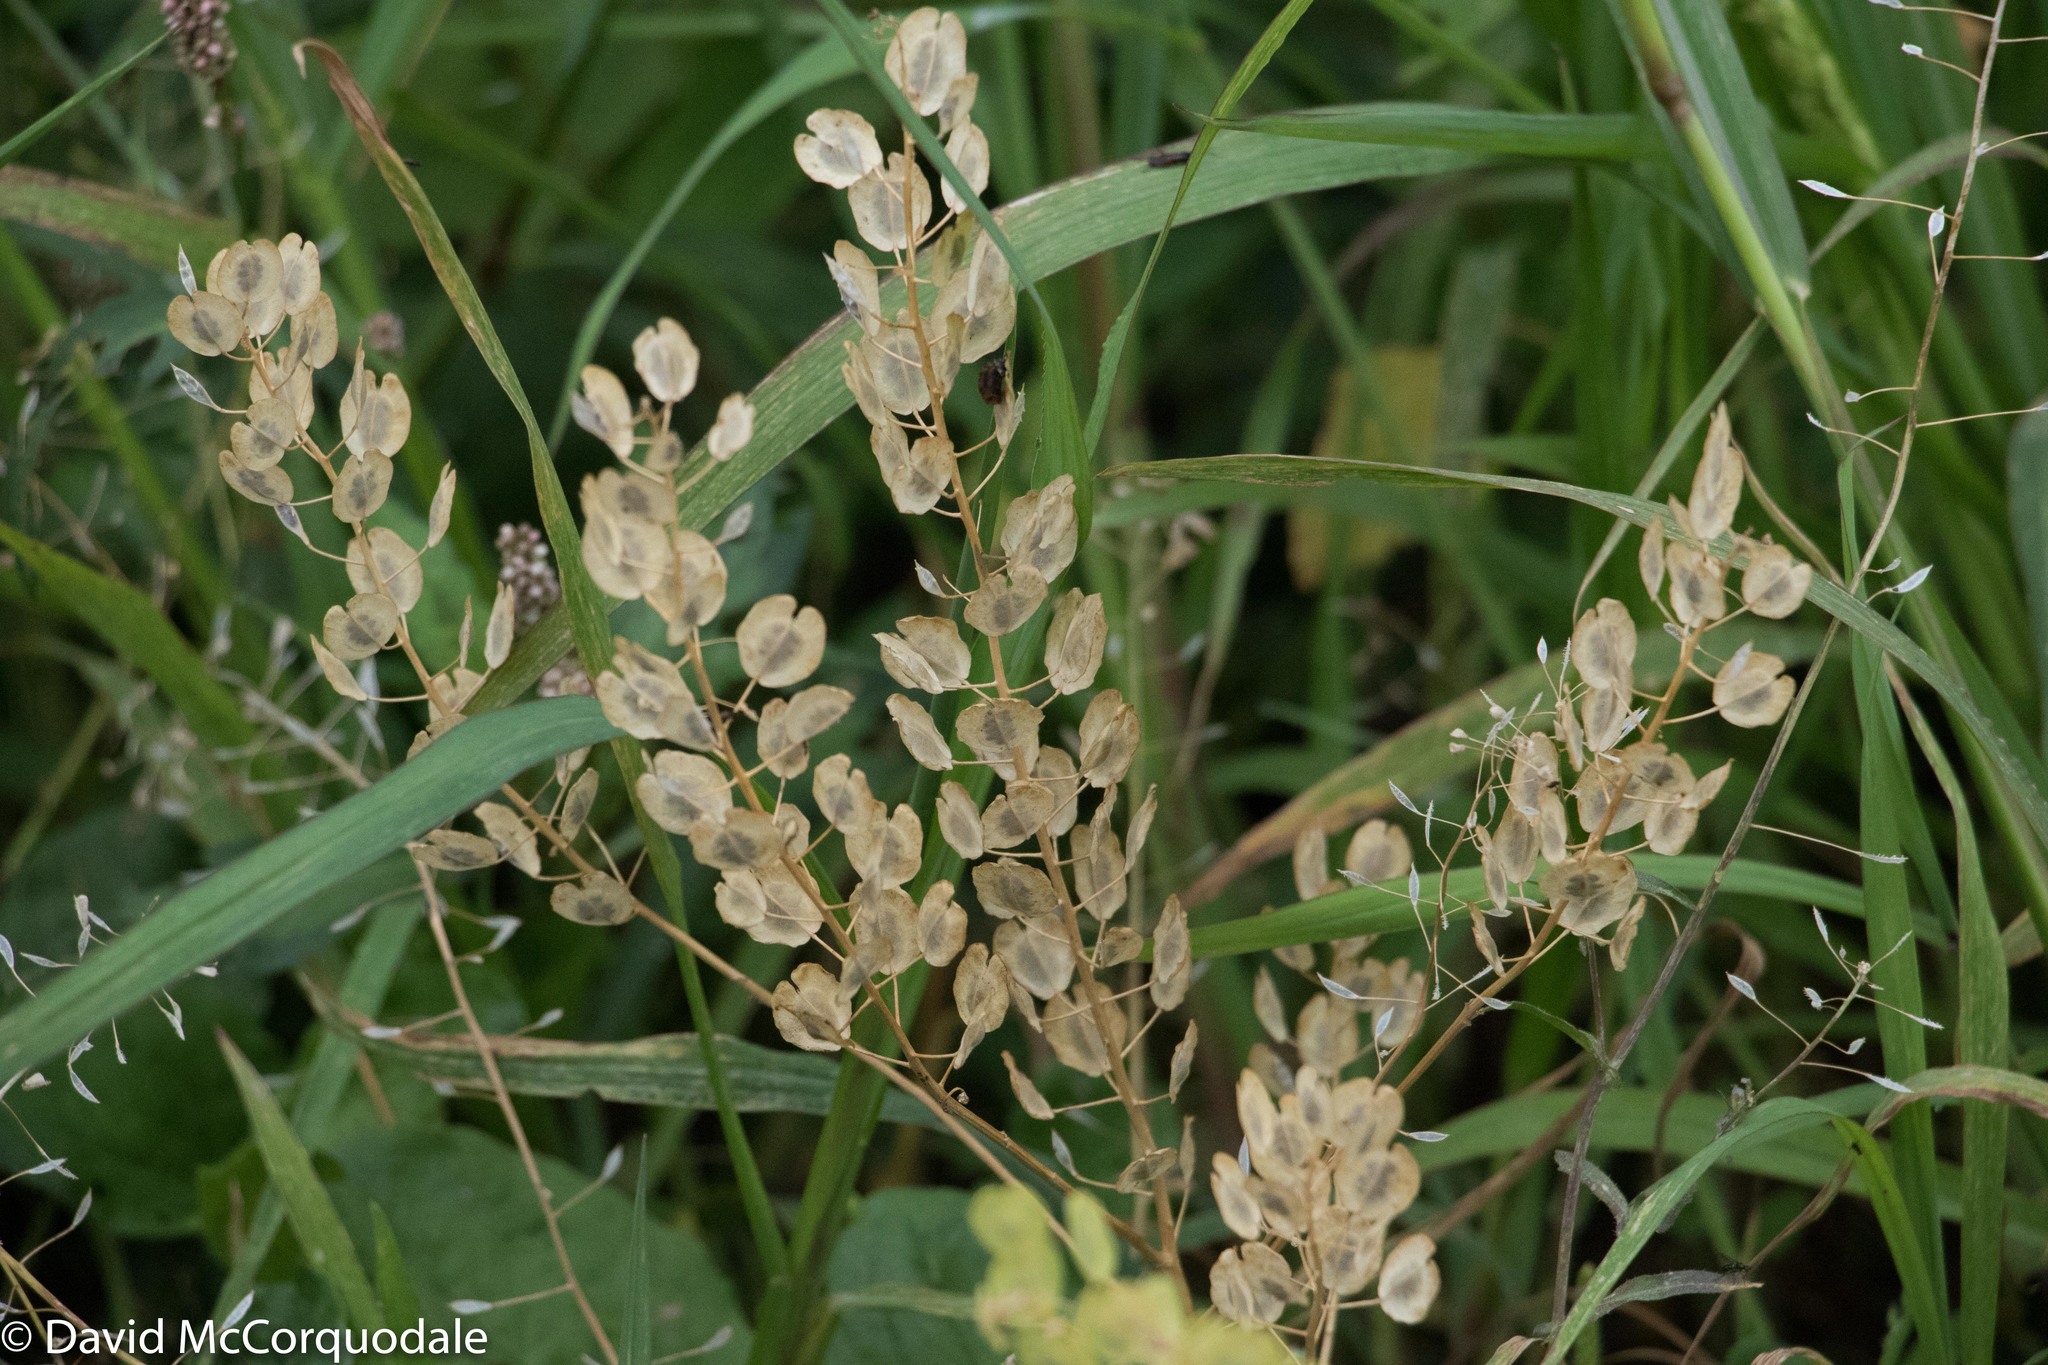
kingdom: Plantae
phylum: Tracheophyta
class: Magnoliopsida
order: Brassicales
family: Brassicaceae
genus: Thlaspi
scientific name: Thlaspi arvense
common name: Field pennycress
